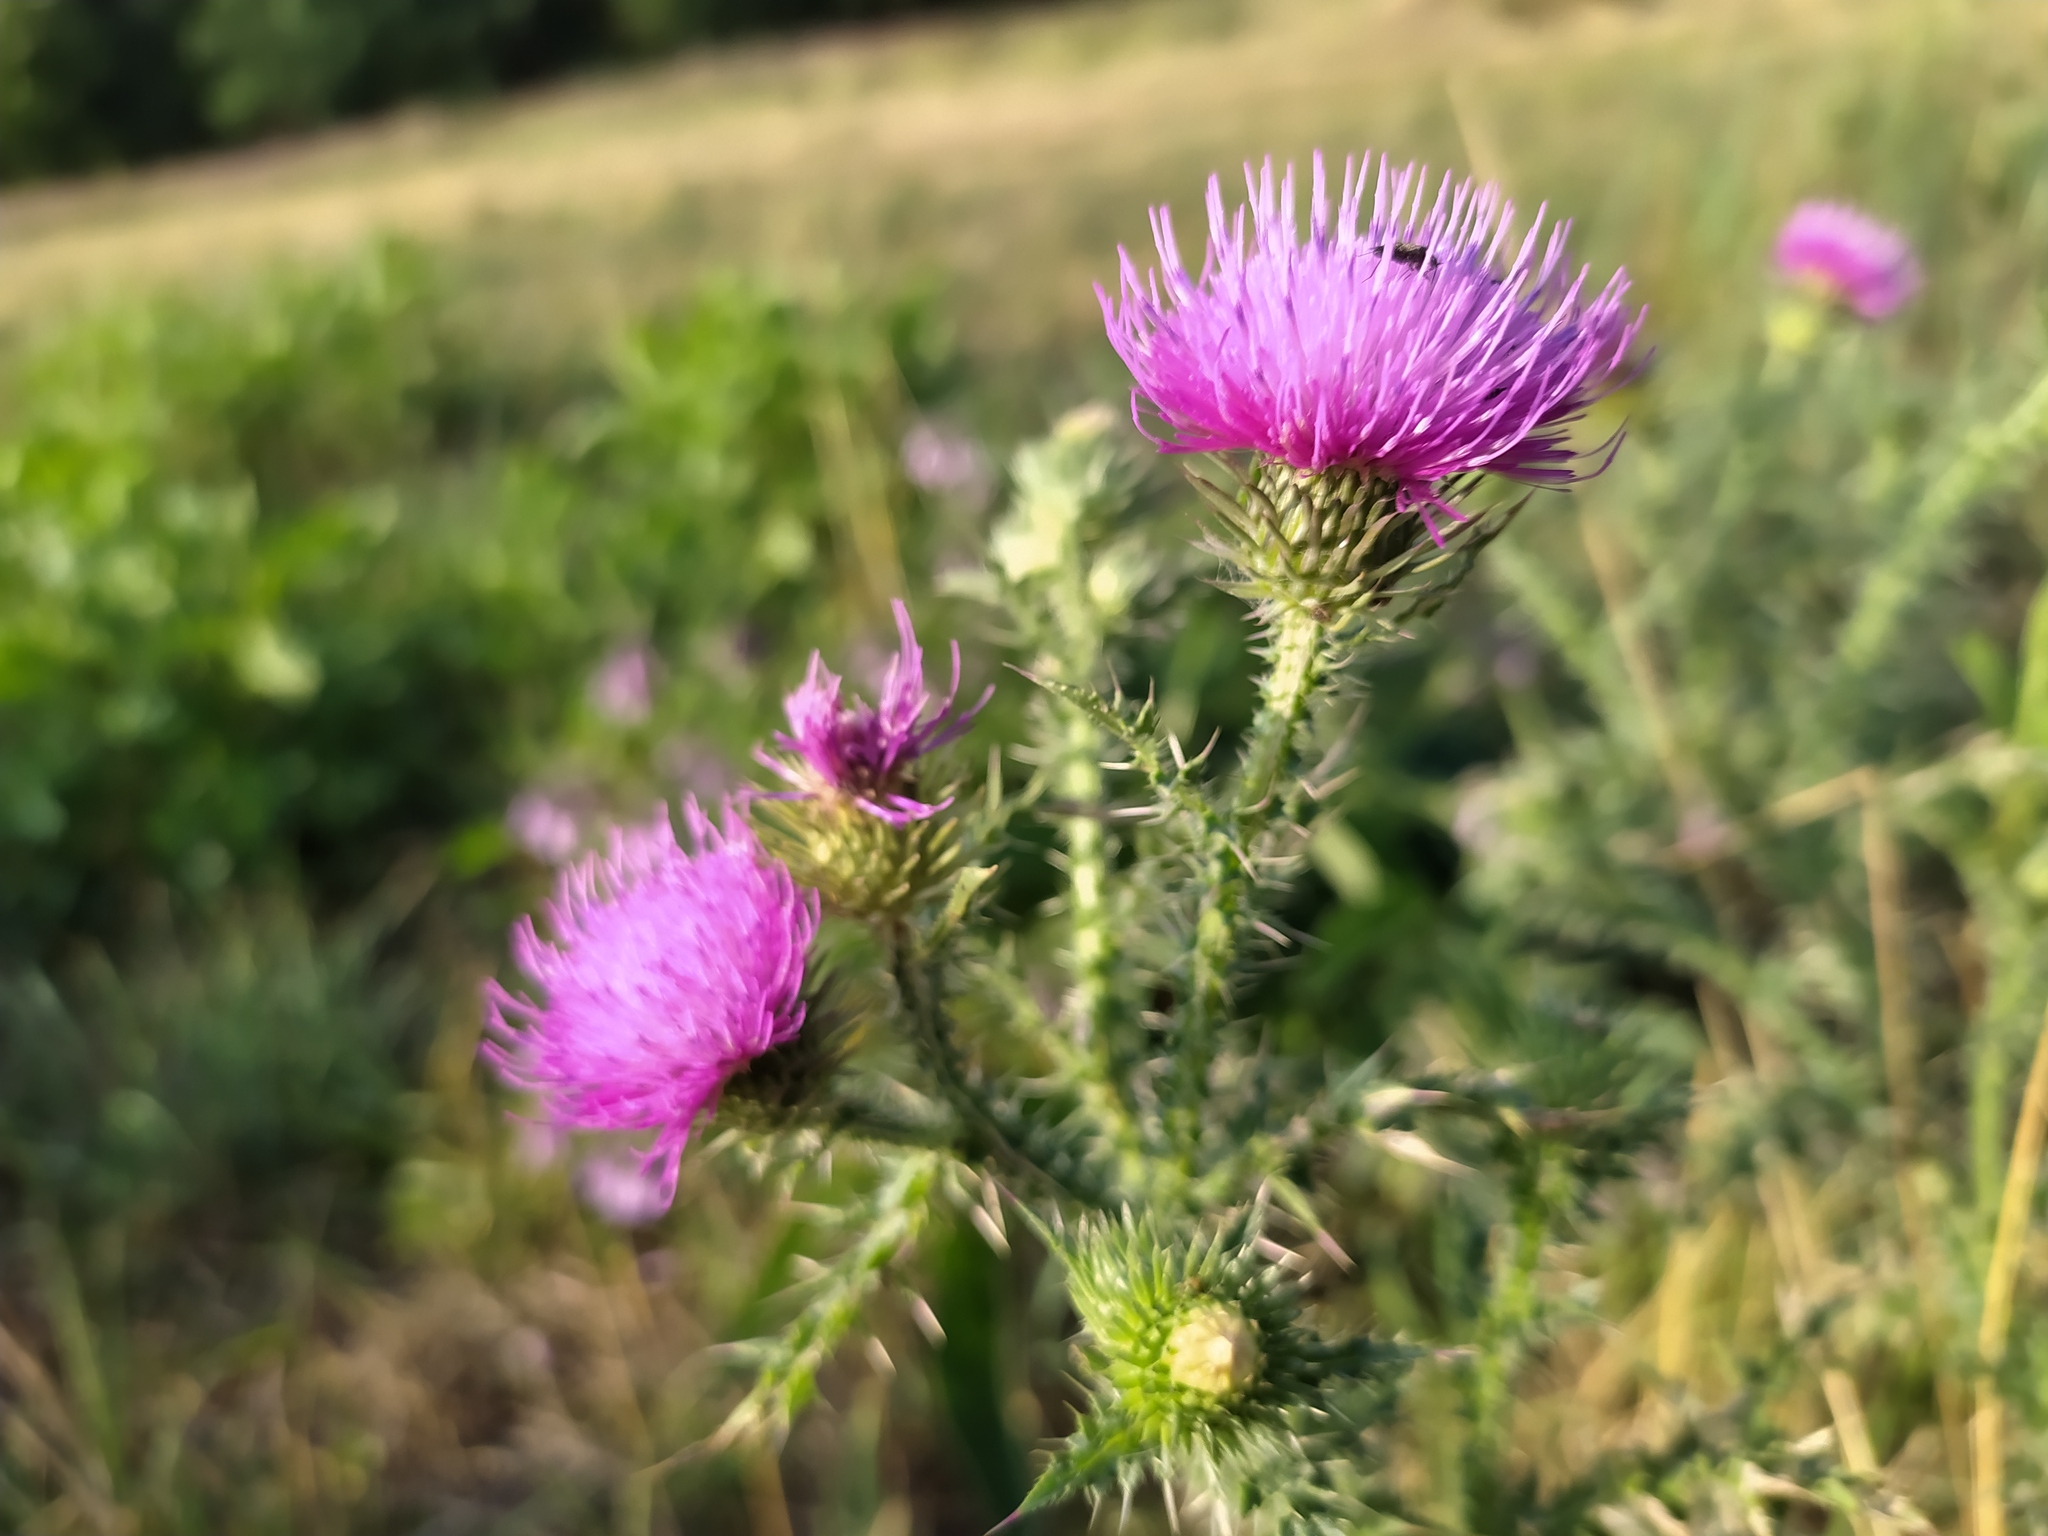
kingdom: Plantae
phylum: Tracheophyta
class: Magnoliopsida
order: Asterales
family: Asteraceae
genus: Carduus
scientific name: Carduus acanthoides
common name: Plumeless thistle
